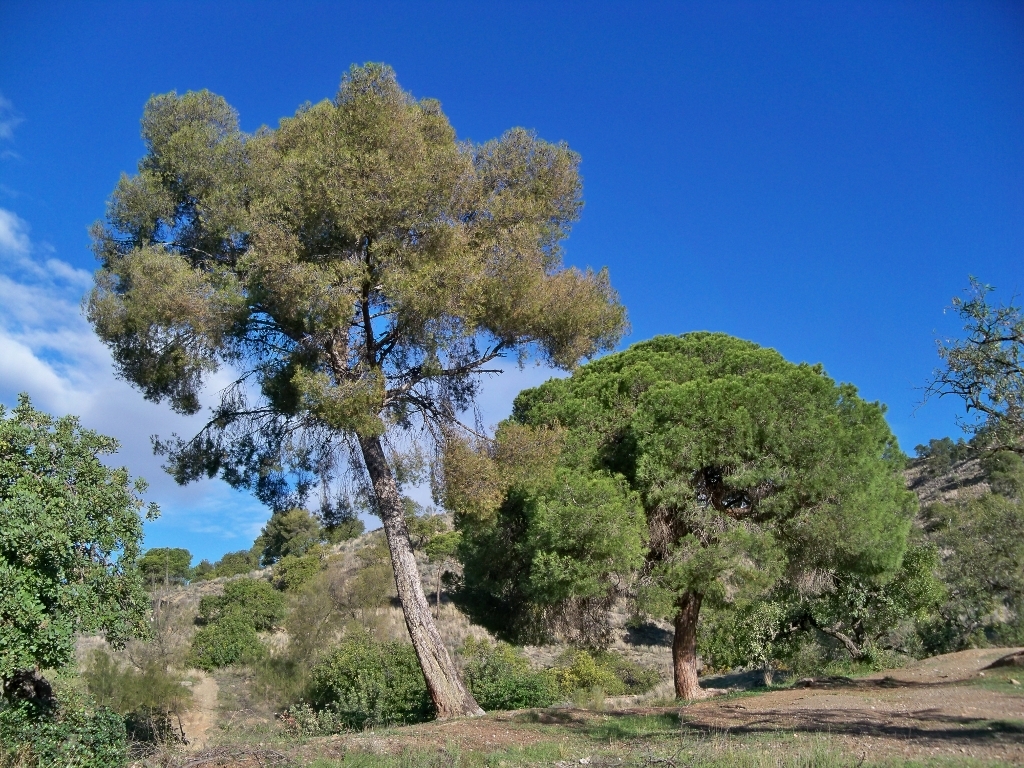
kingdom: Plantae
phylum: Tracheophyta
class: Pinopsida
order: Pinales
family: Pinaceae
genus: Pinus
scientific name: Pinus pinea
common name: Italian stone pine
